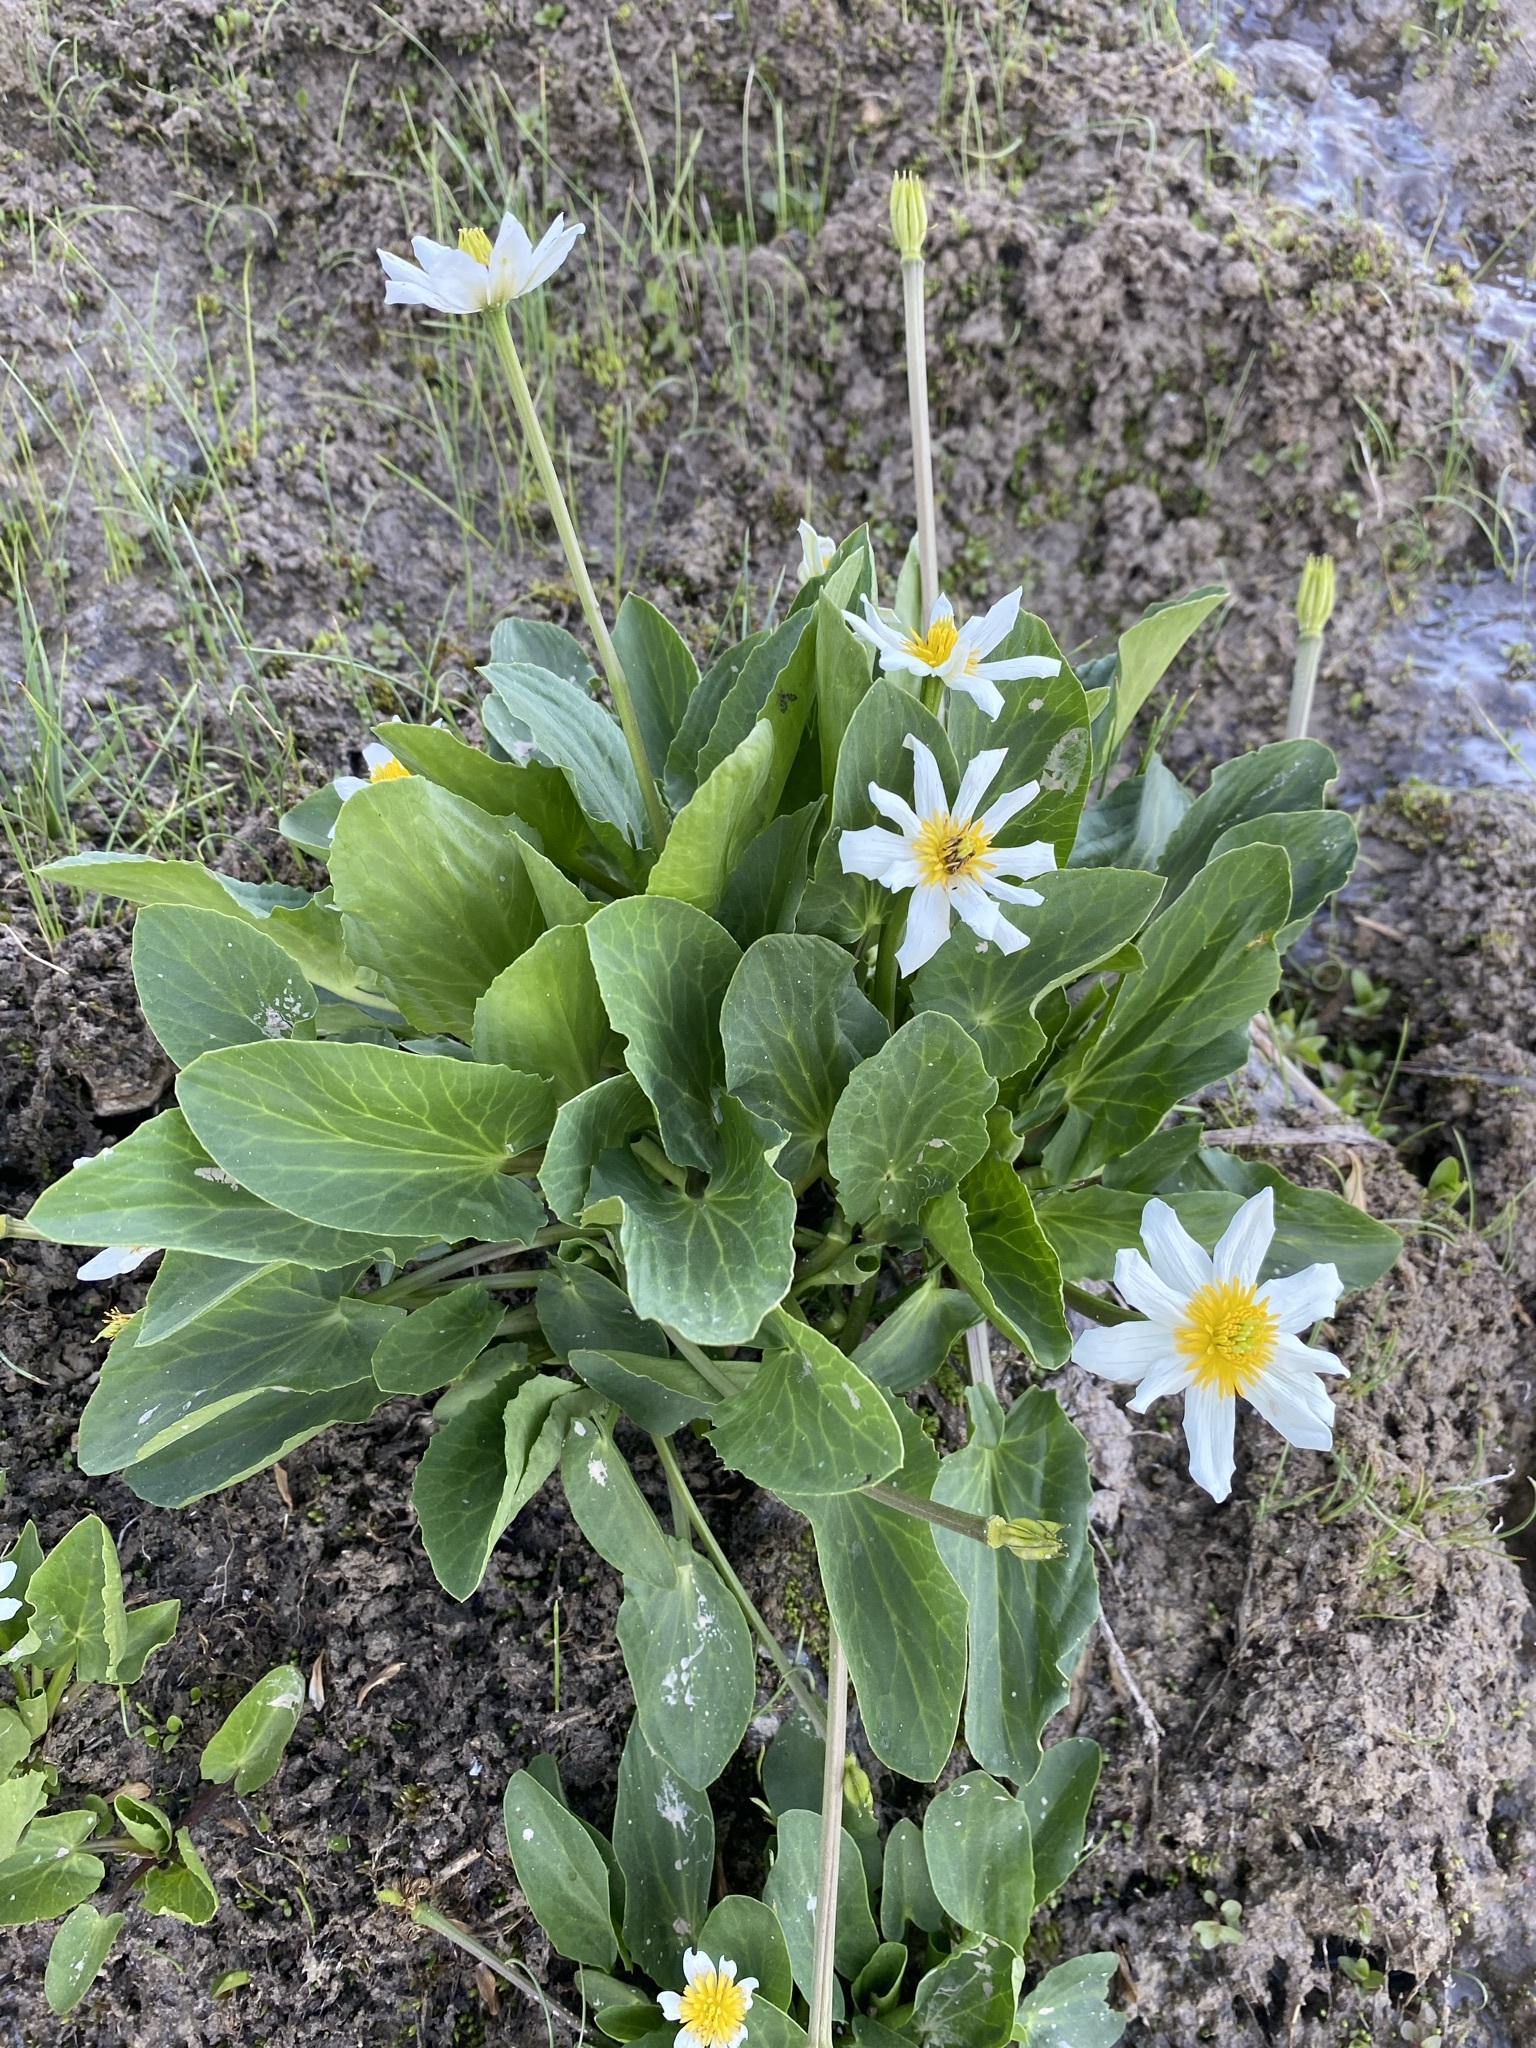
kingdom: Plantae
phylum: Tracheophyta
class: Magnoliopsida
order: Ranunculales
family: Ranunculaceae
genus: Caltha
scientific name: Caltha leptosepala
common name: Elkslip
